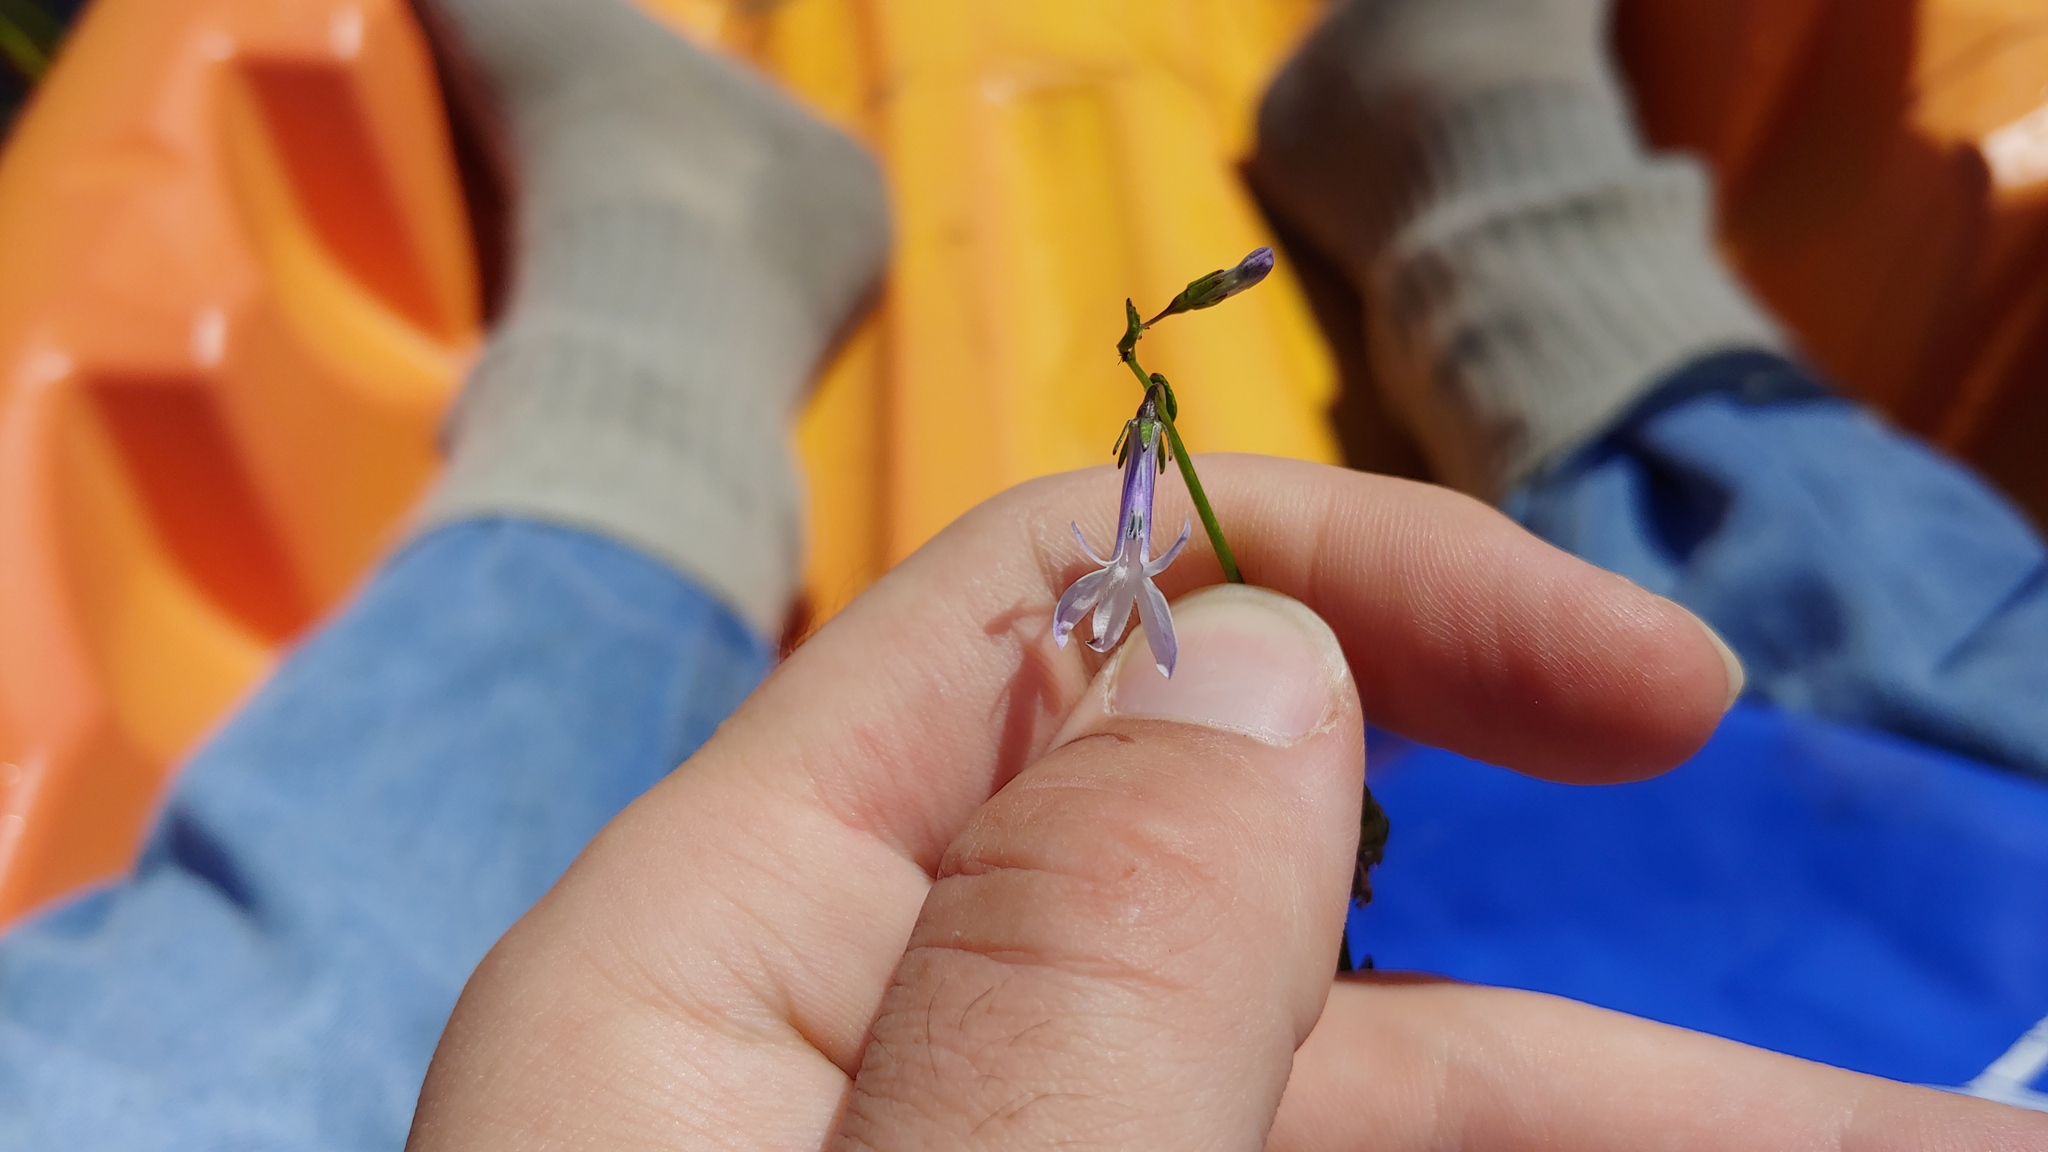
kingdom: Plantae
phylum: Tracheophyta
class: Magnoliopsida
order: Asterales
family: Campanulaceae
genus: Lobelia
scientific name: Lobelia dortmanna
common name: Water lobelia
